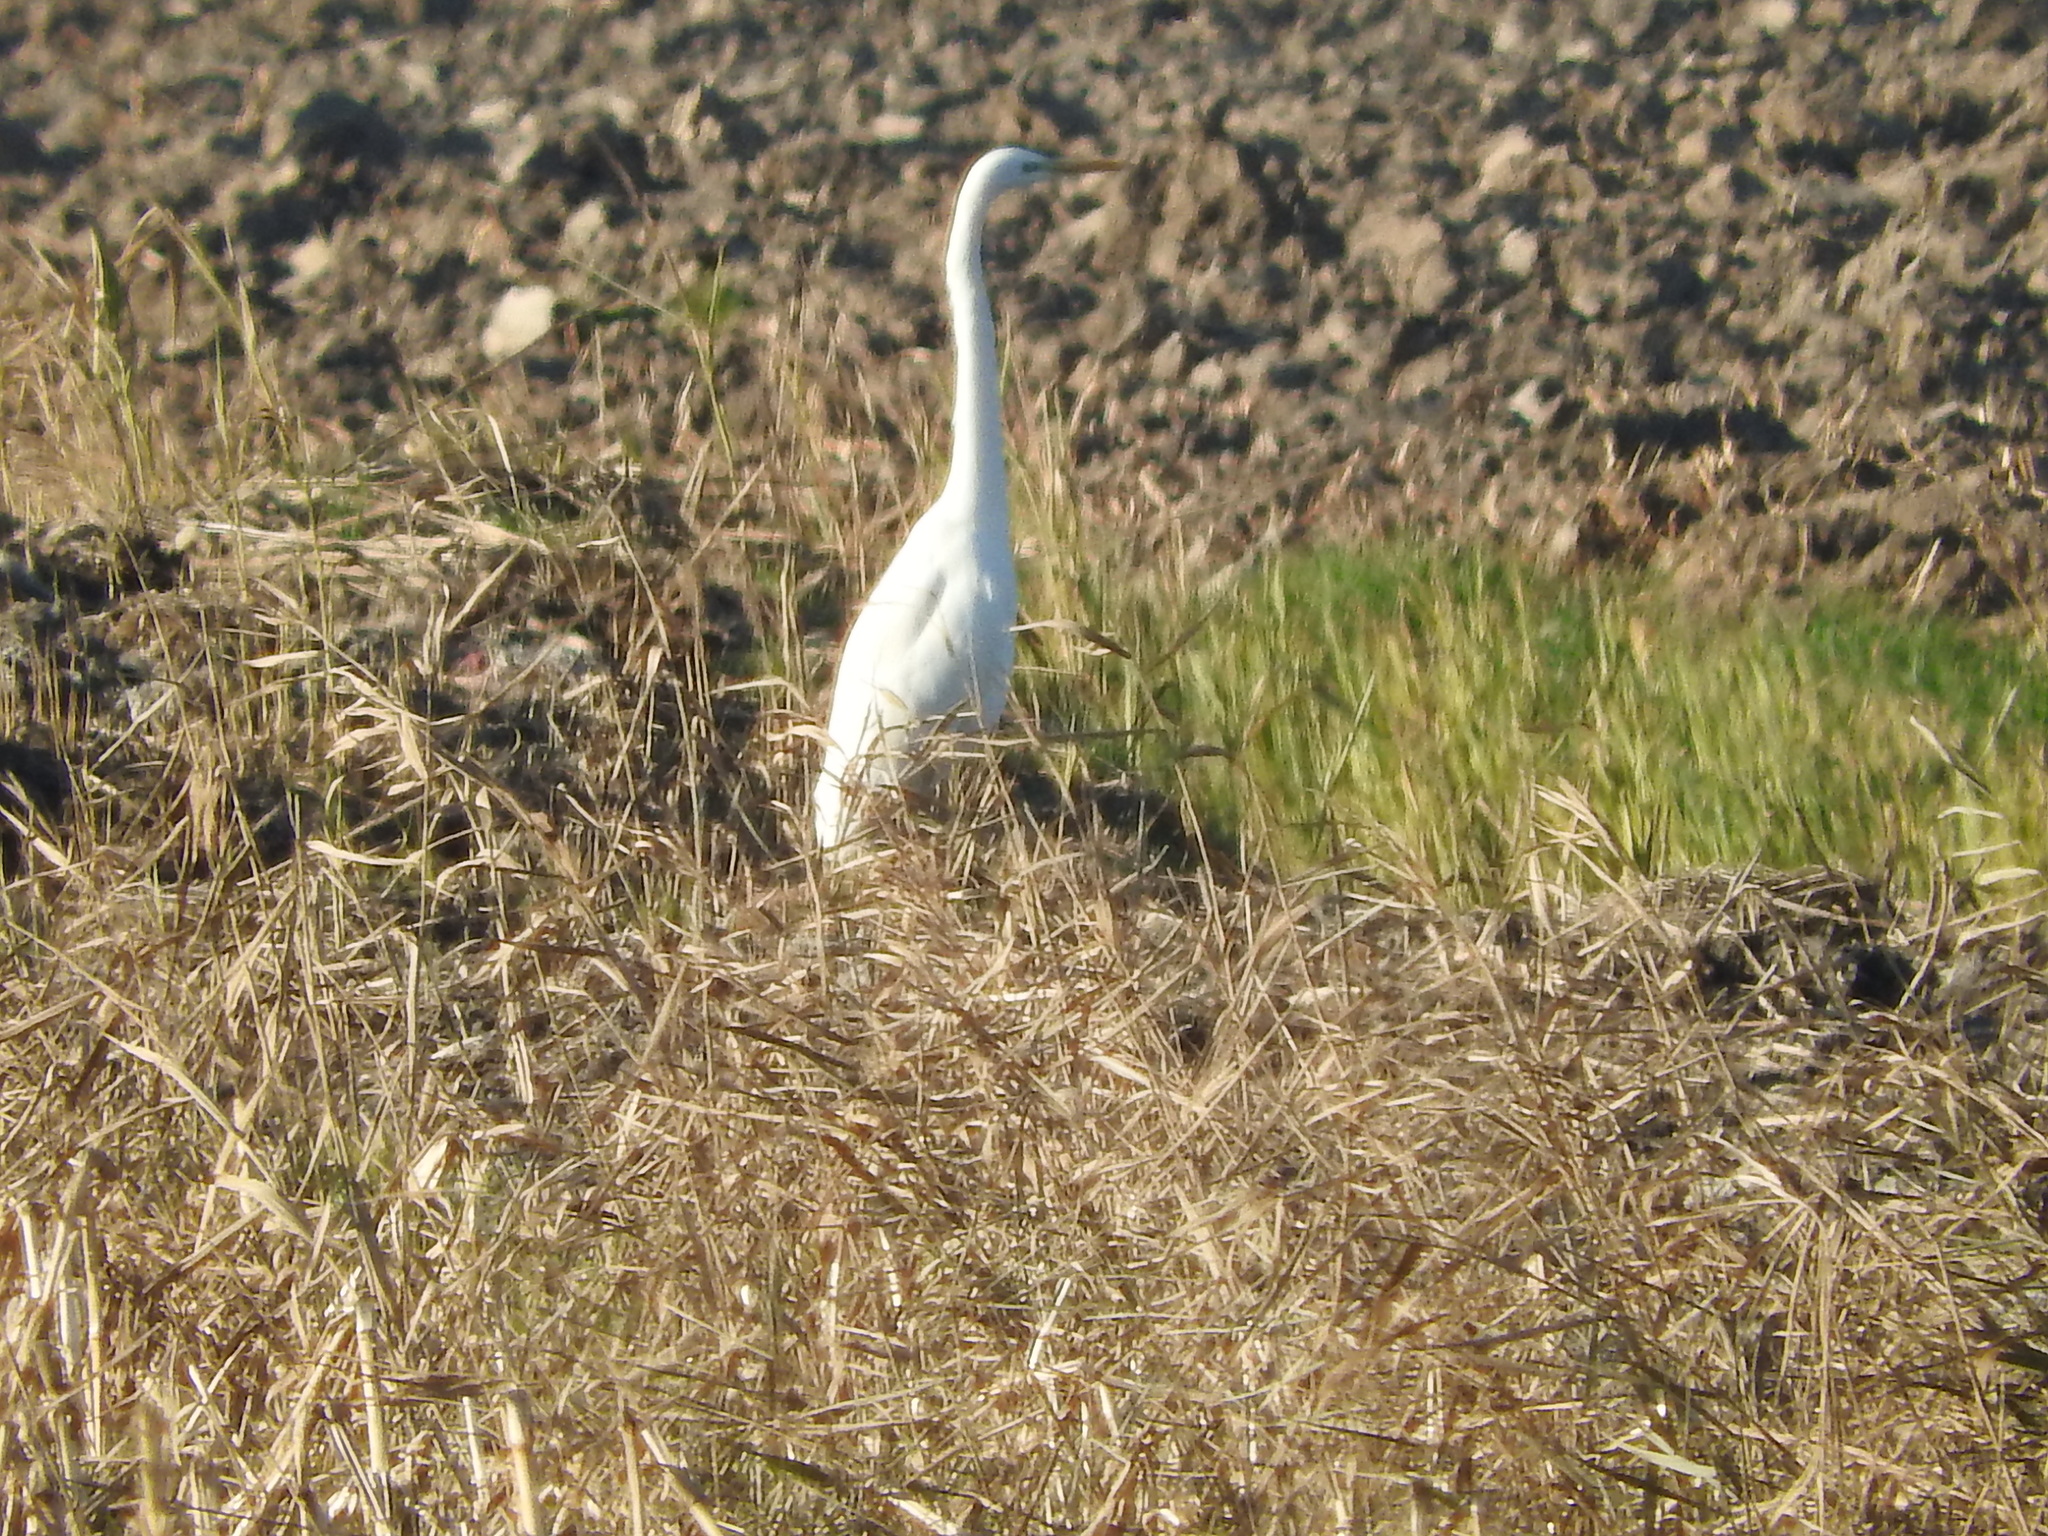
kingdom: Animalia
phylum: Chordata
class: Aves
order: Pelecaniformes
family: Ardeidae
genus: Ardea
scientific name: Ardea alba
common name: Great egret
